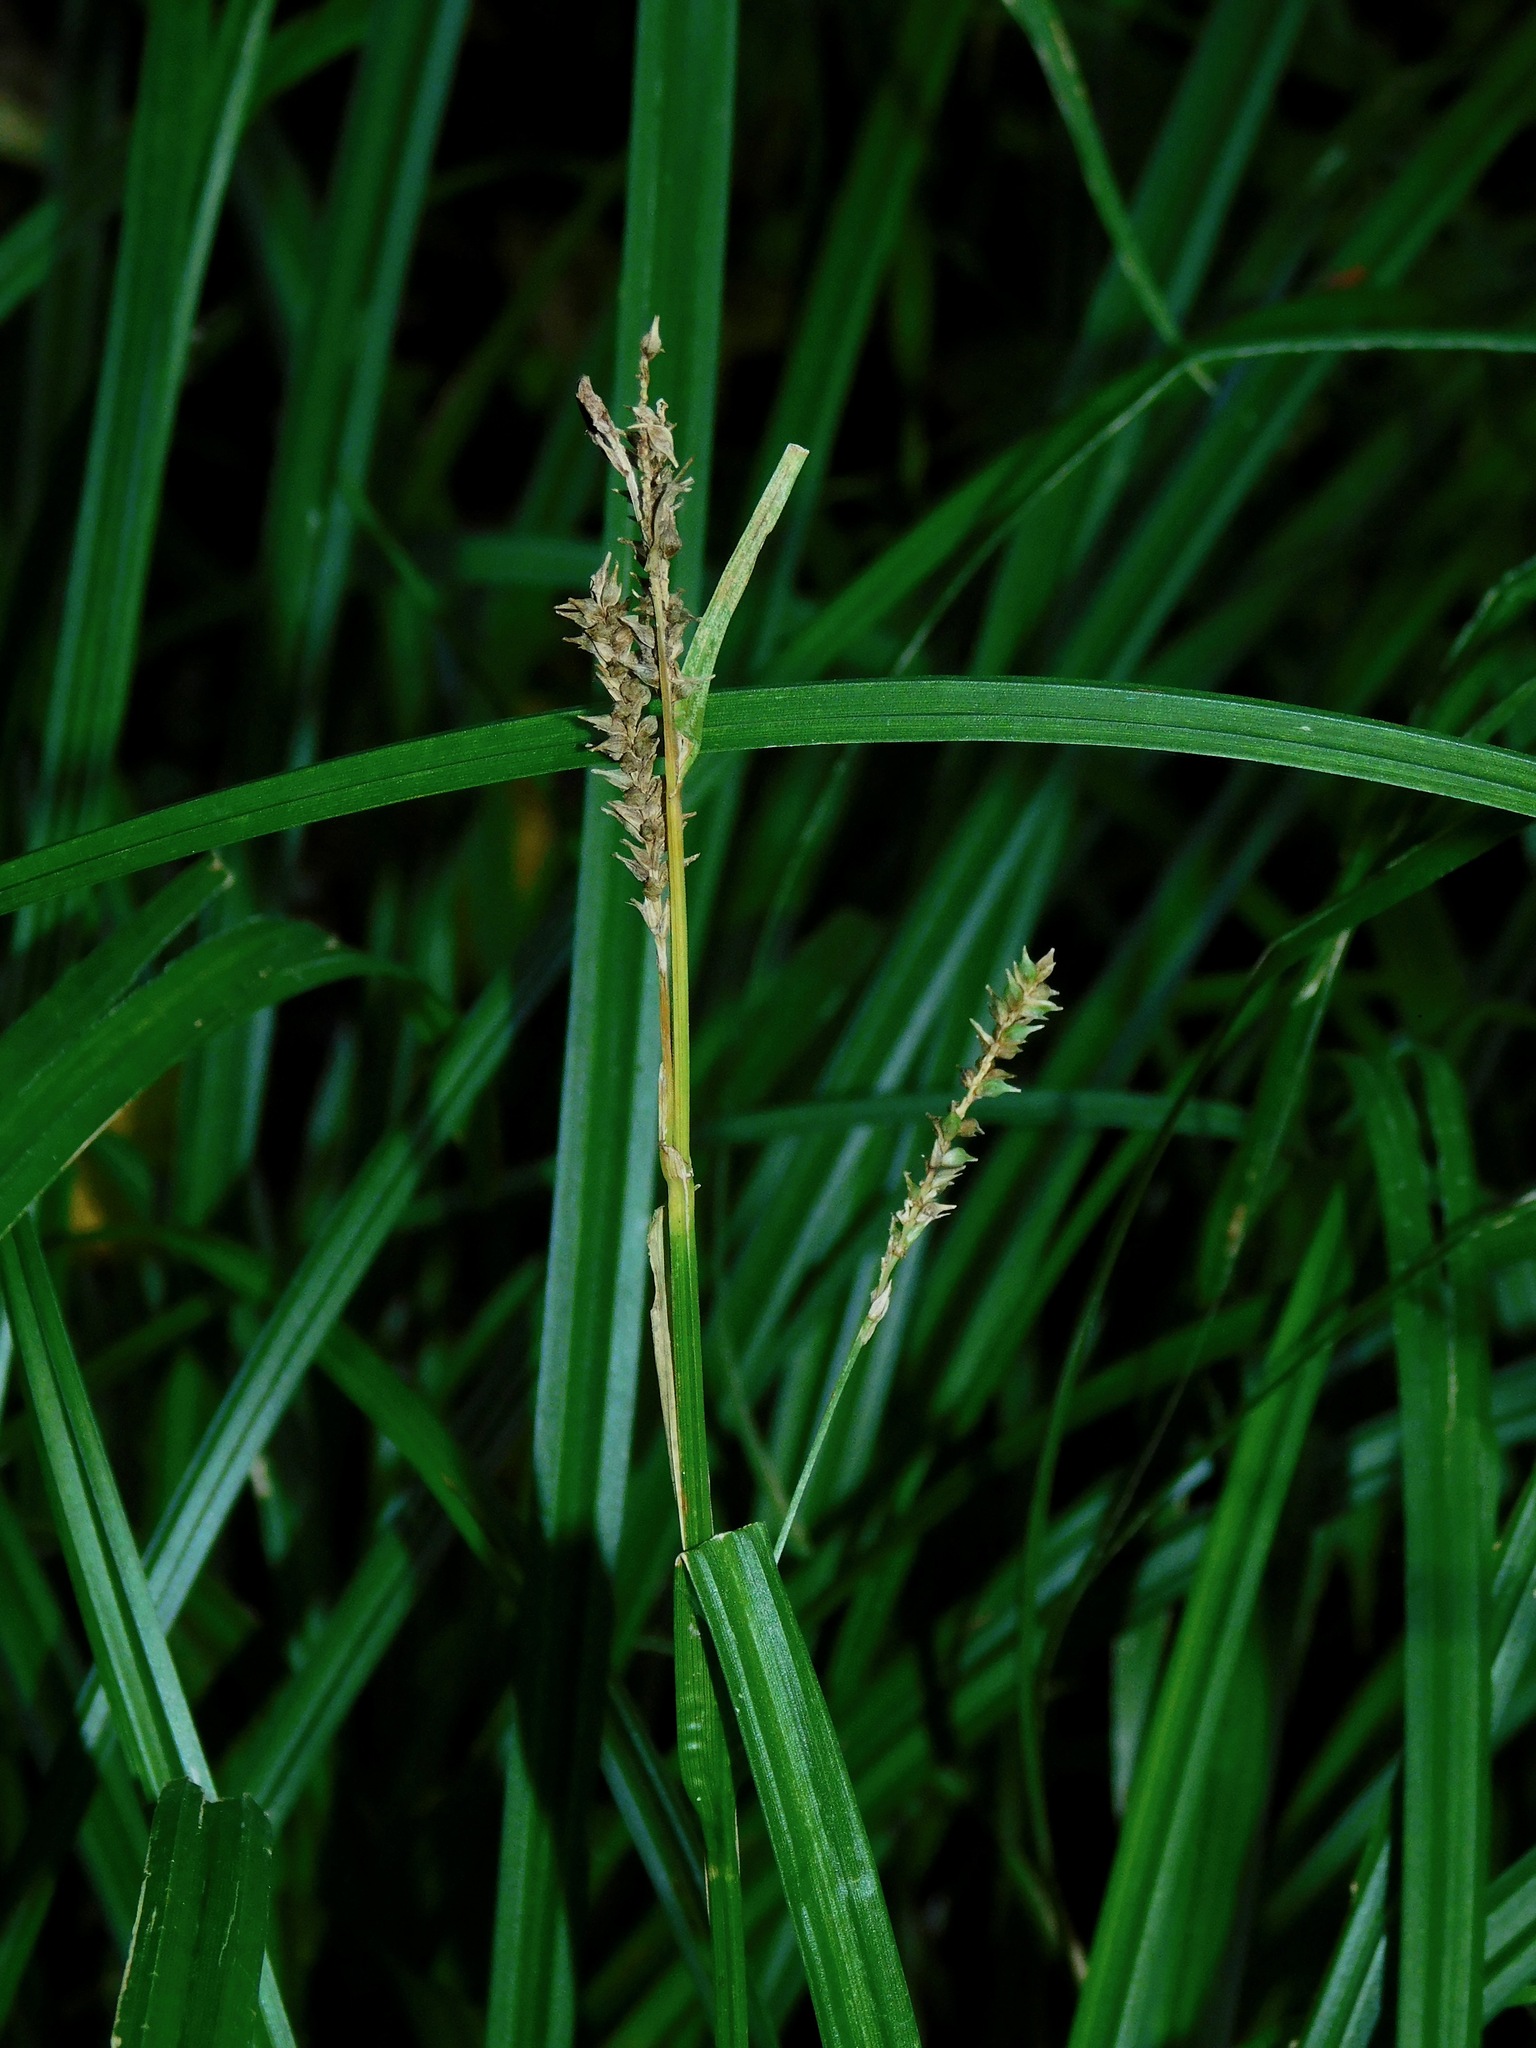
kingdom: Plantae
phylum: Tracheophyta
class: Liliopsida
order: Poales
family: Cyperaceae
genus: Carex
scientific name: Carex scabrata
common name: Eastern rough sedge
